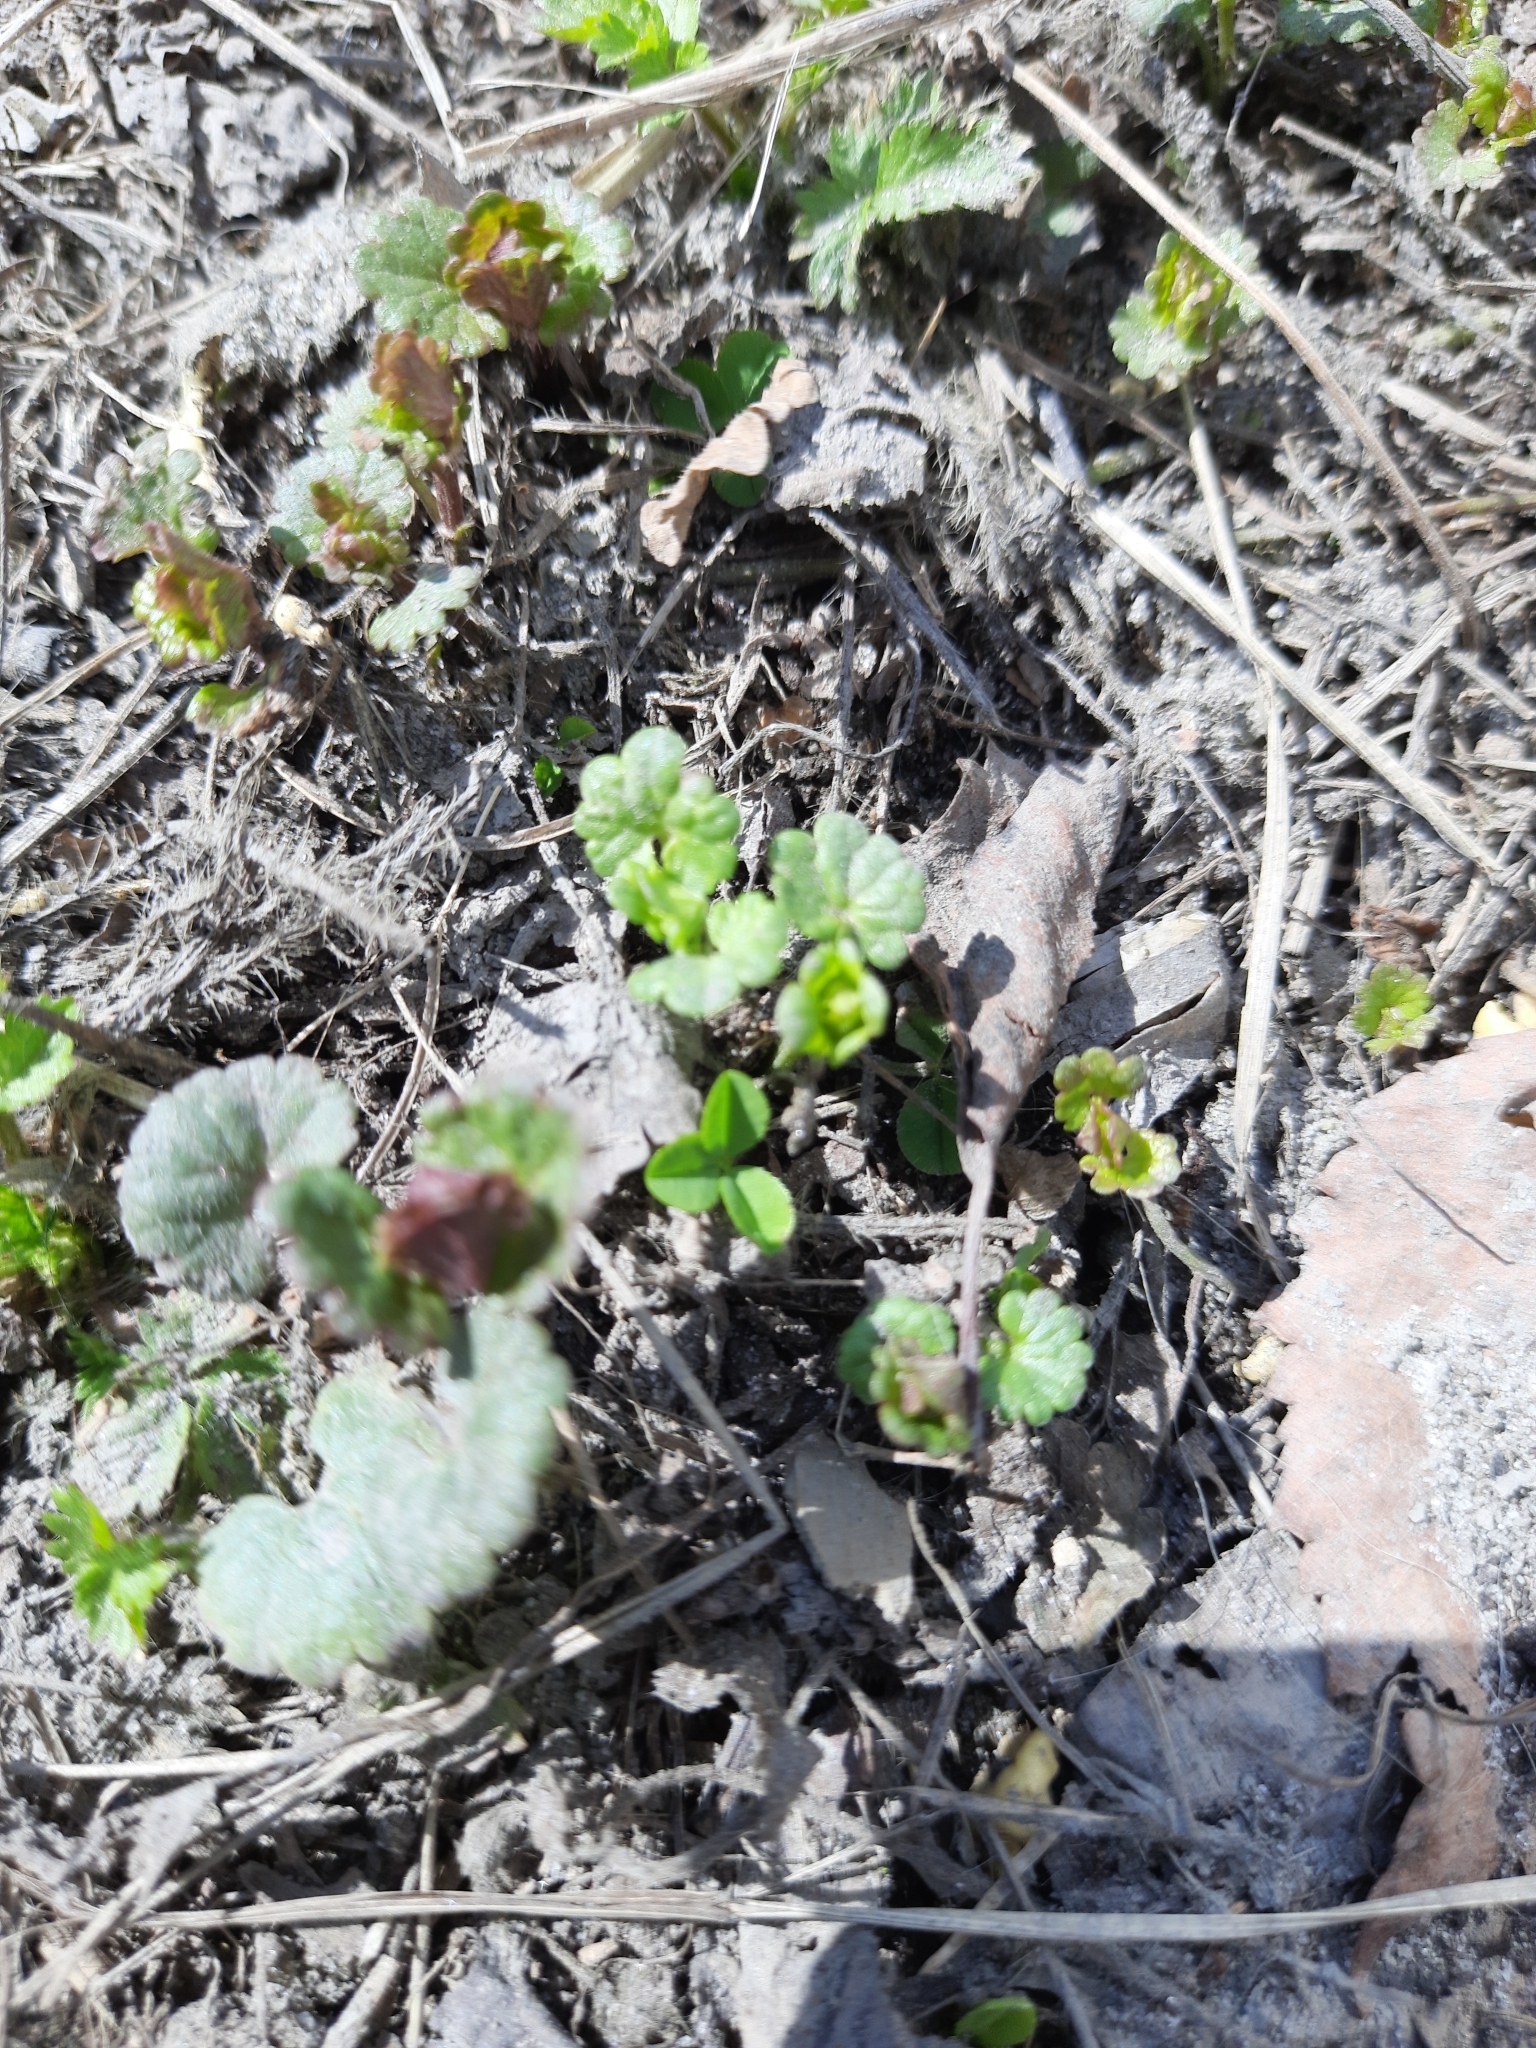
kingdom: Plantae
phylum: Tracheophyta
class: Magnoliopsida
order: Lamiales
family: Lamiaceae
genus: Glechoma
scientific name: Glechoma hederacea
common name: Ground ivy
